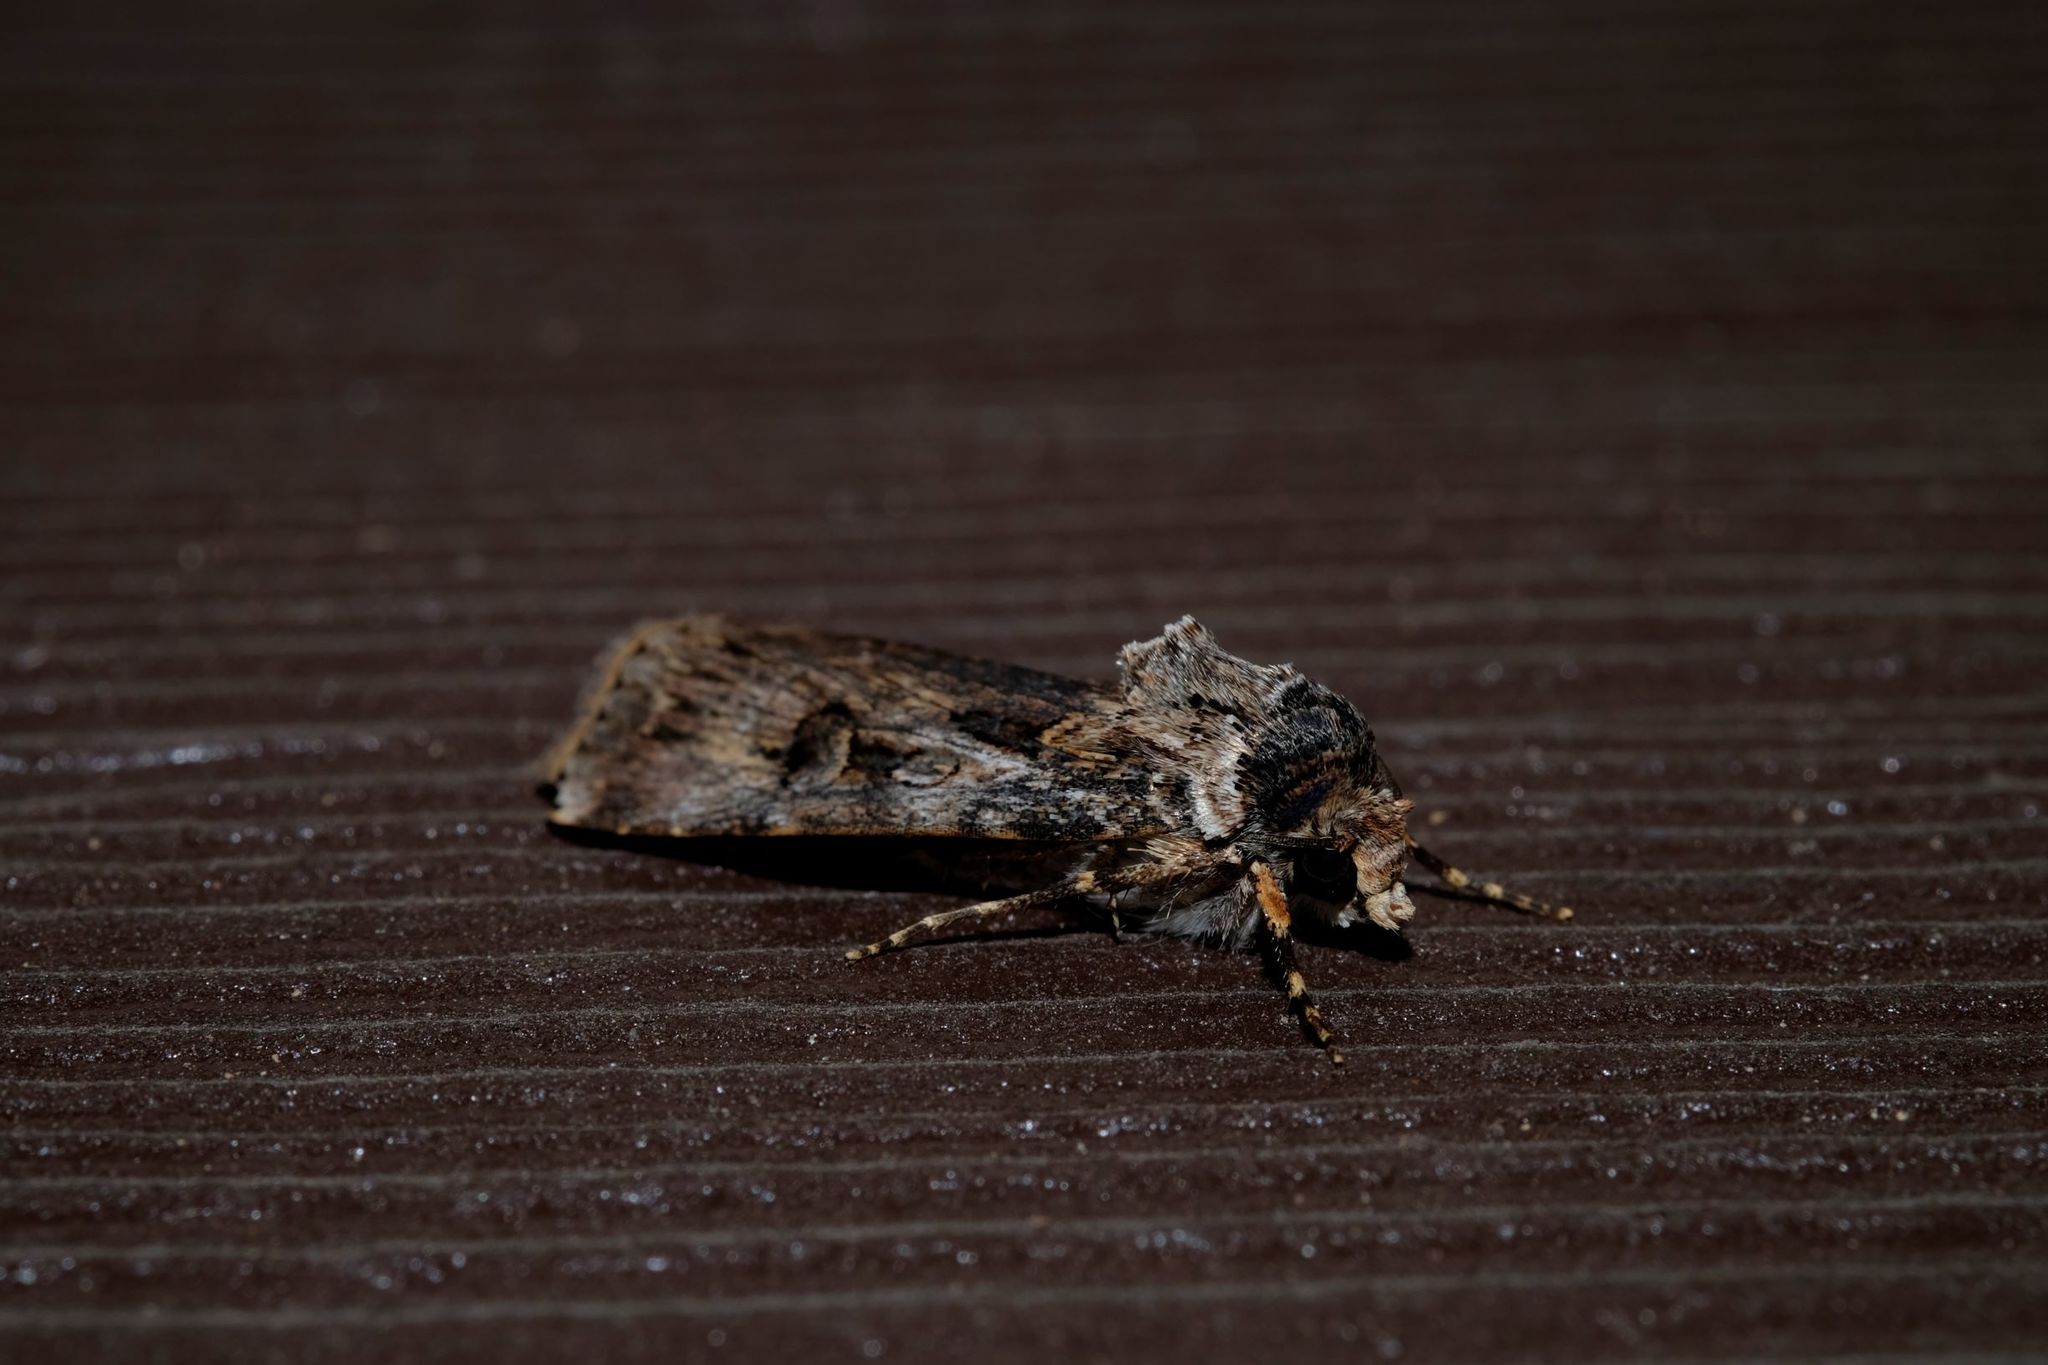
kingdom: Animalia
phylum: Arthropoda
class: Insecta
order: Lepidoptera
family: Noctuidae
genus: Agrotis
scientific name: Agrotis munda
